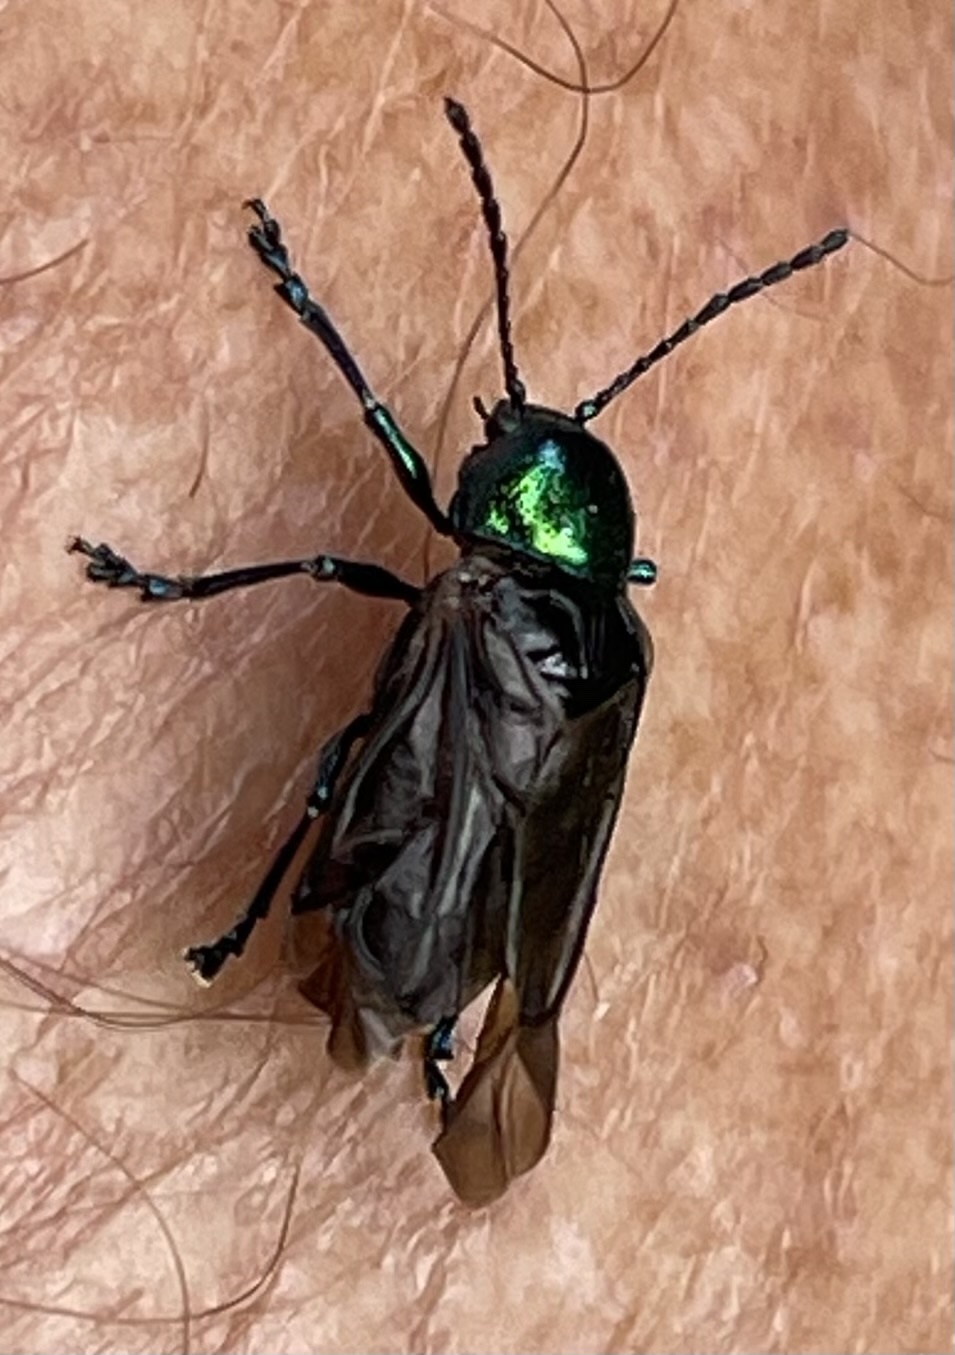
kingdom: Animalia
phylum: Arthropoda
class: Insecta
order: Coleoptera
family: Chrysomelidae
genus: Chrysochus
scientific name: Chrysochus auratus
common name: Dogbane leaf beetle
